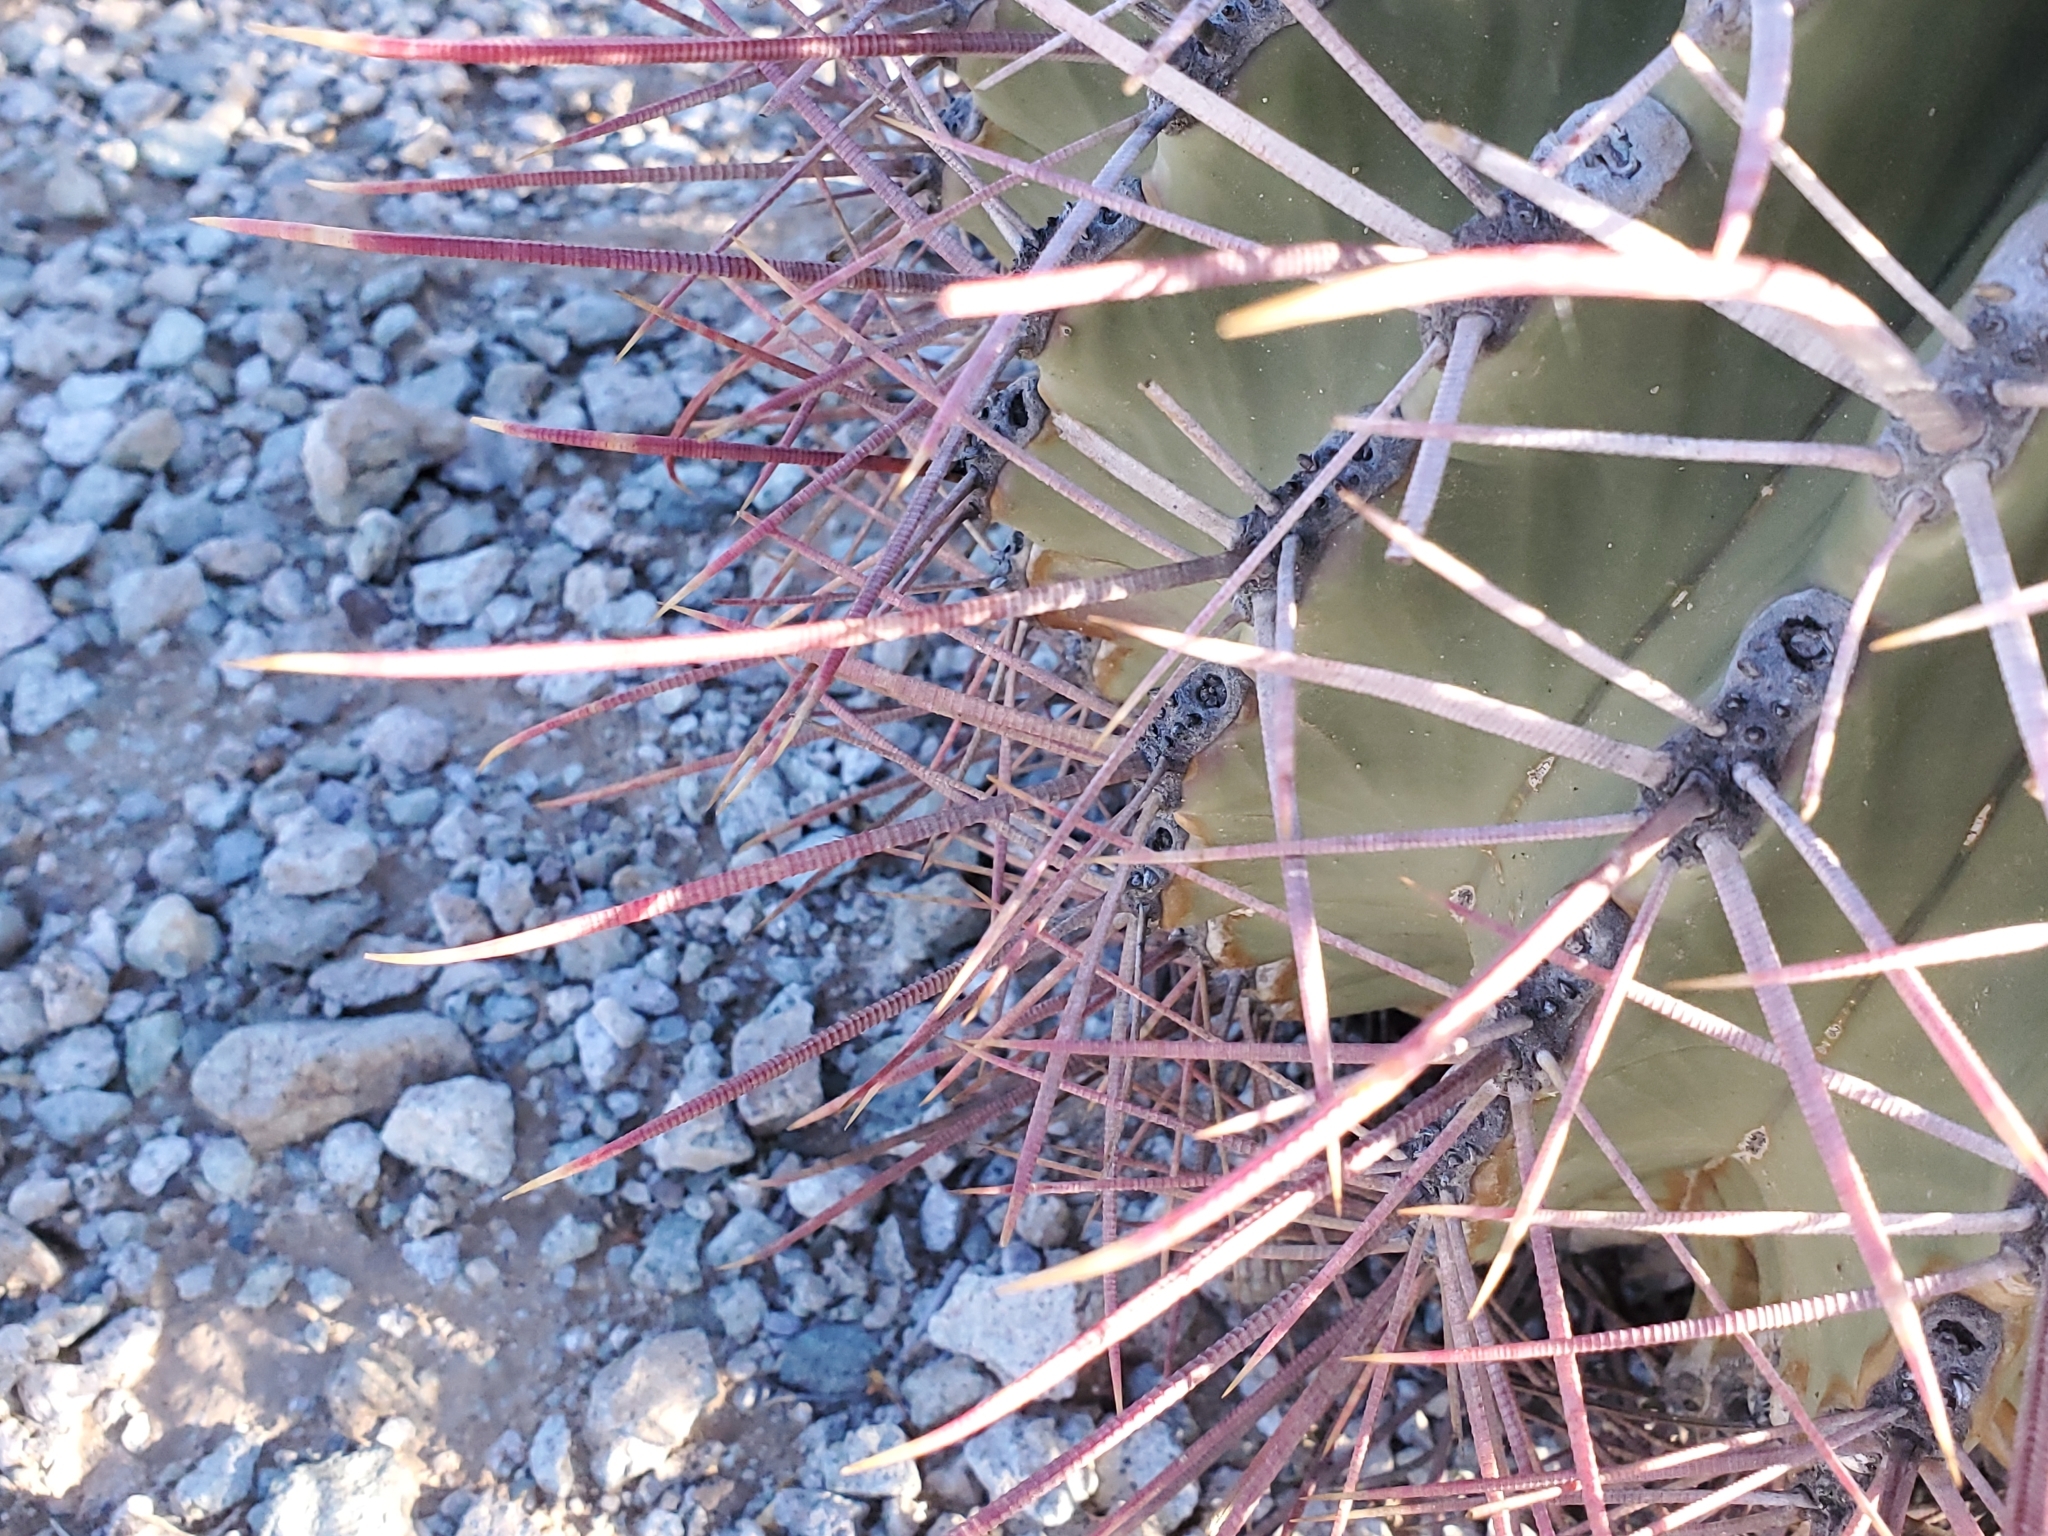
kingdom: Plantae
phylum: Tracheophyta
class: Magnoliopsida
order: Caryophyllales
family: Cactaceae
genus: Ferocactus
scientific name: Ferocactus emoryi
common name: Emory's barrel cactus
